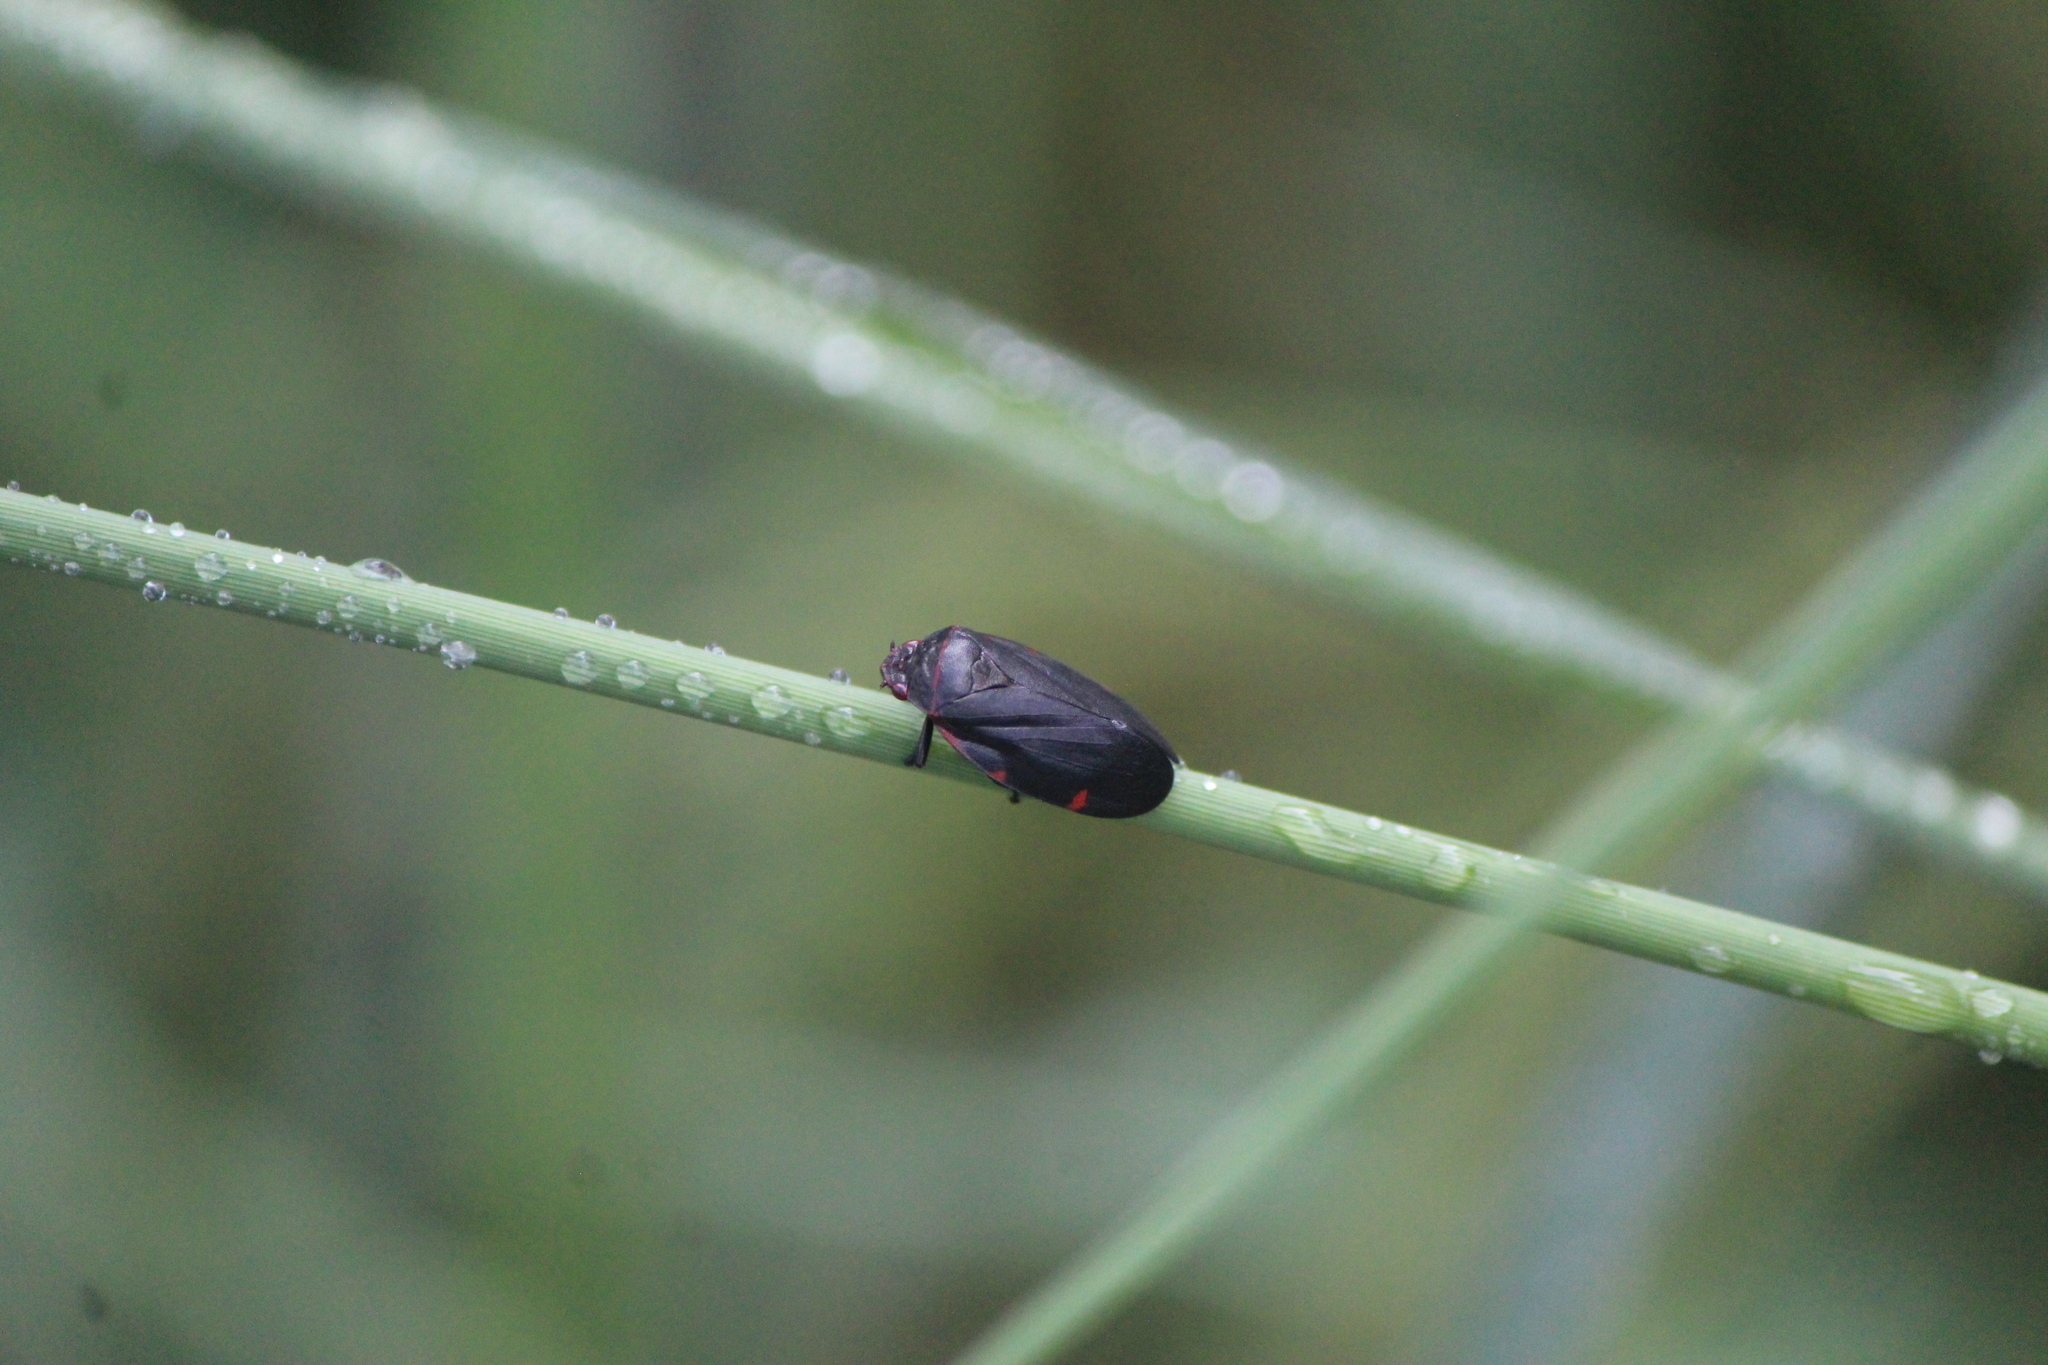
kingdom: Animalia
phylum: Arthropoda
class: Insecta
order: Hemiptera
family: Cercopidae
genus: Prosapia
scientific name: Prosapia
